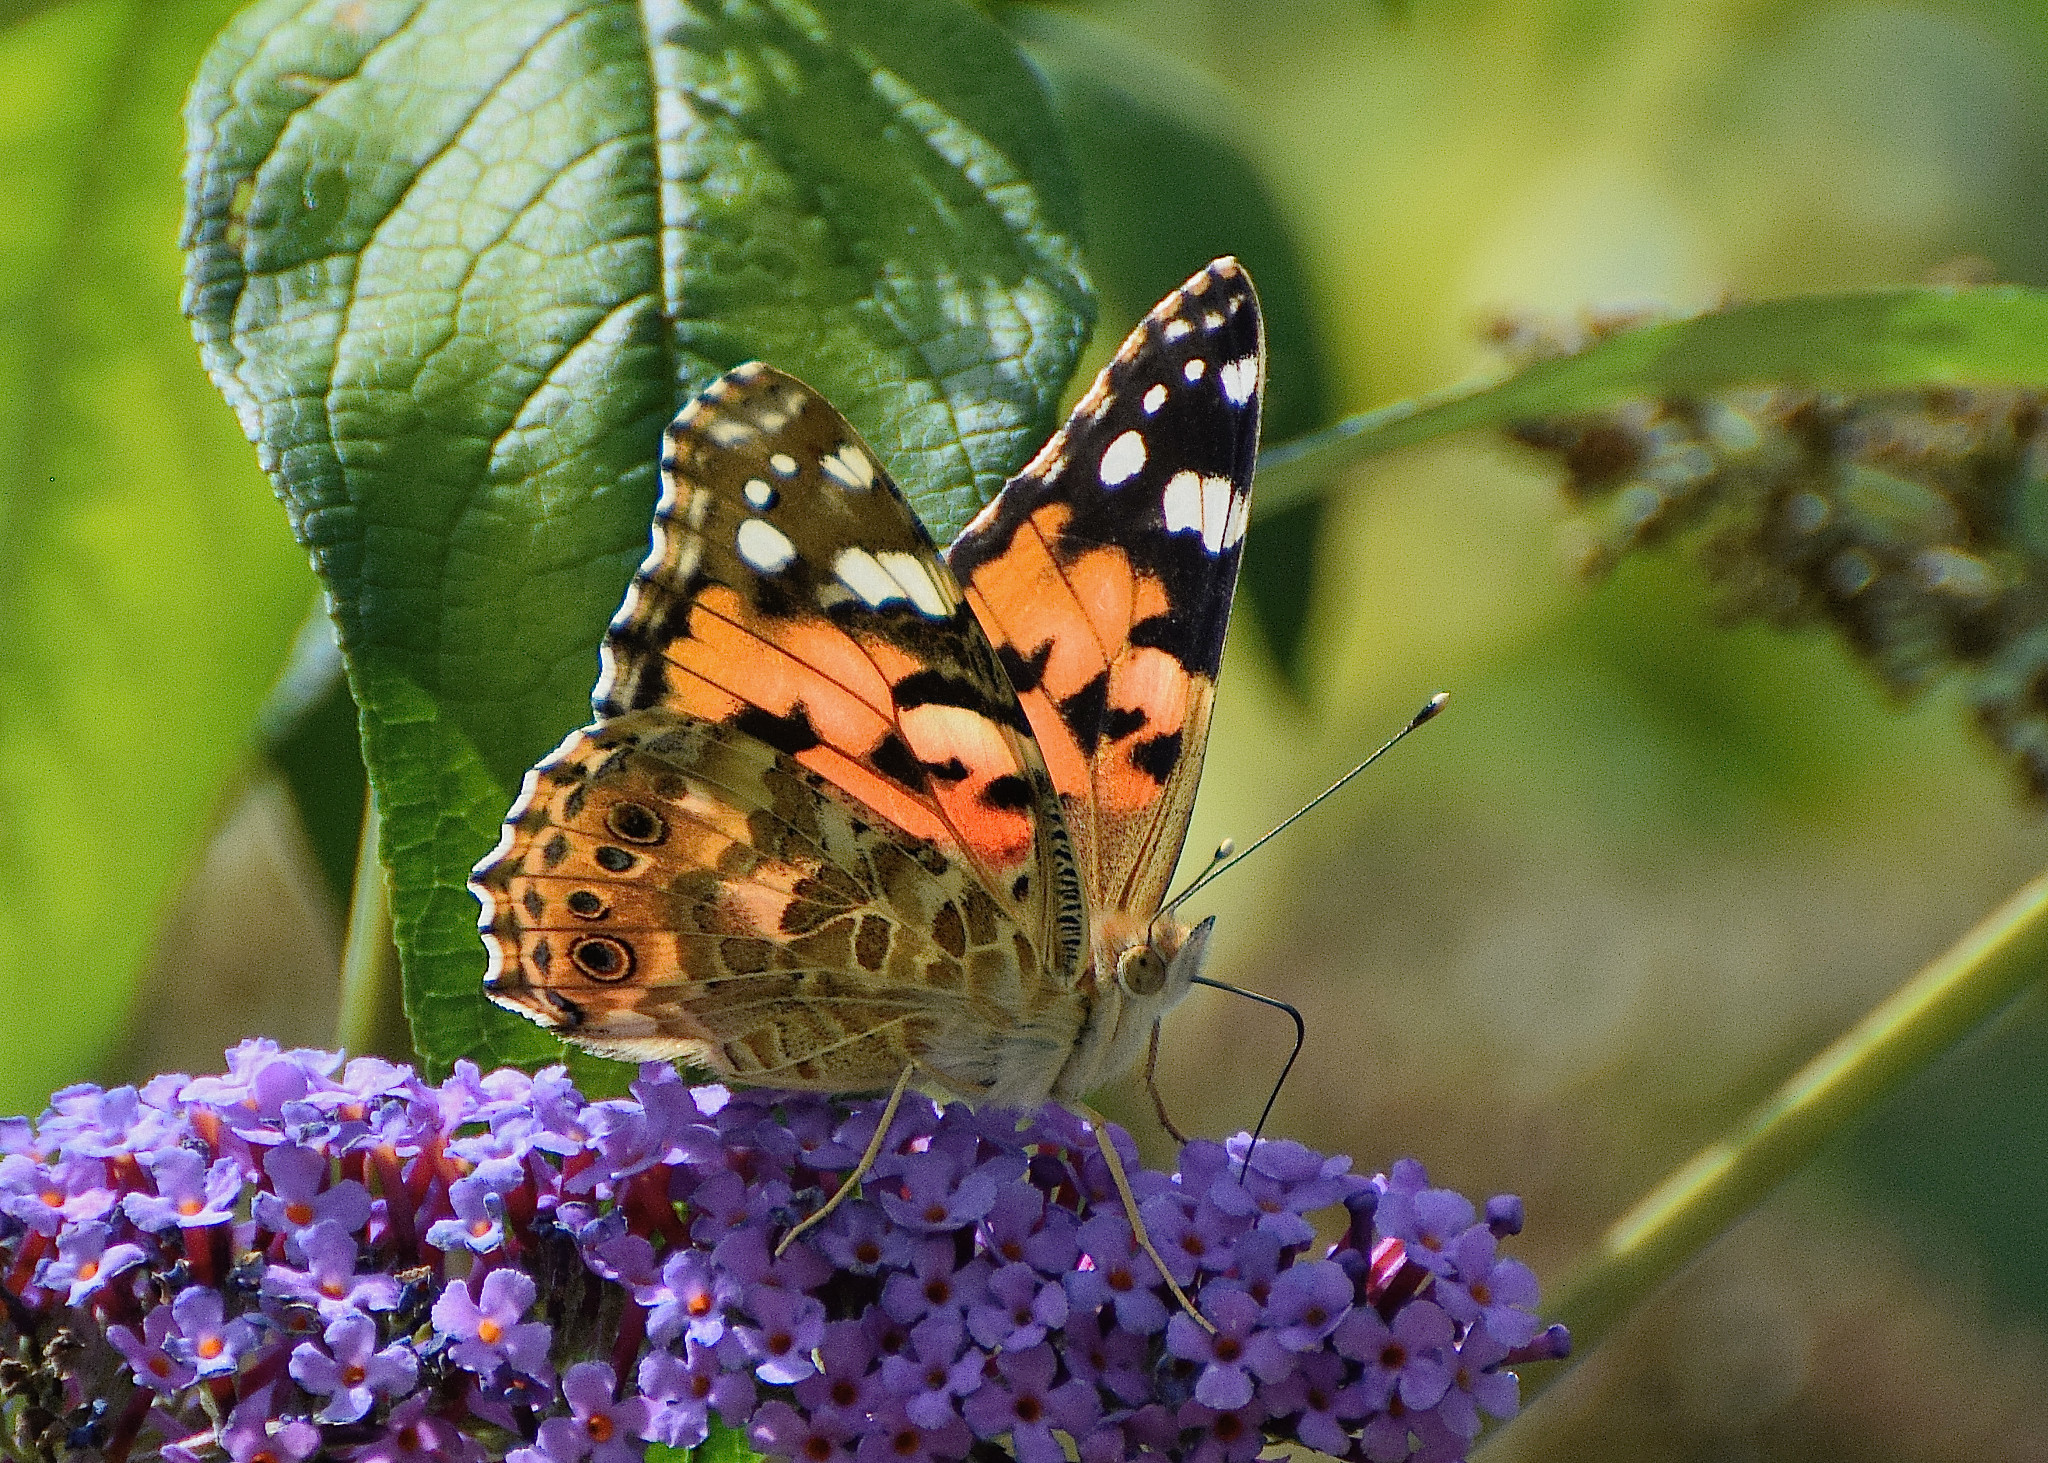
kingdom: Animalia
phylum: Arthropoda
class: Insecta
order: Lepidoptera
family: Nymphalidae
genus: Vanessa
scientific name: Vanessa cardui
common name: Painted lady
